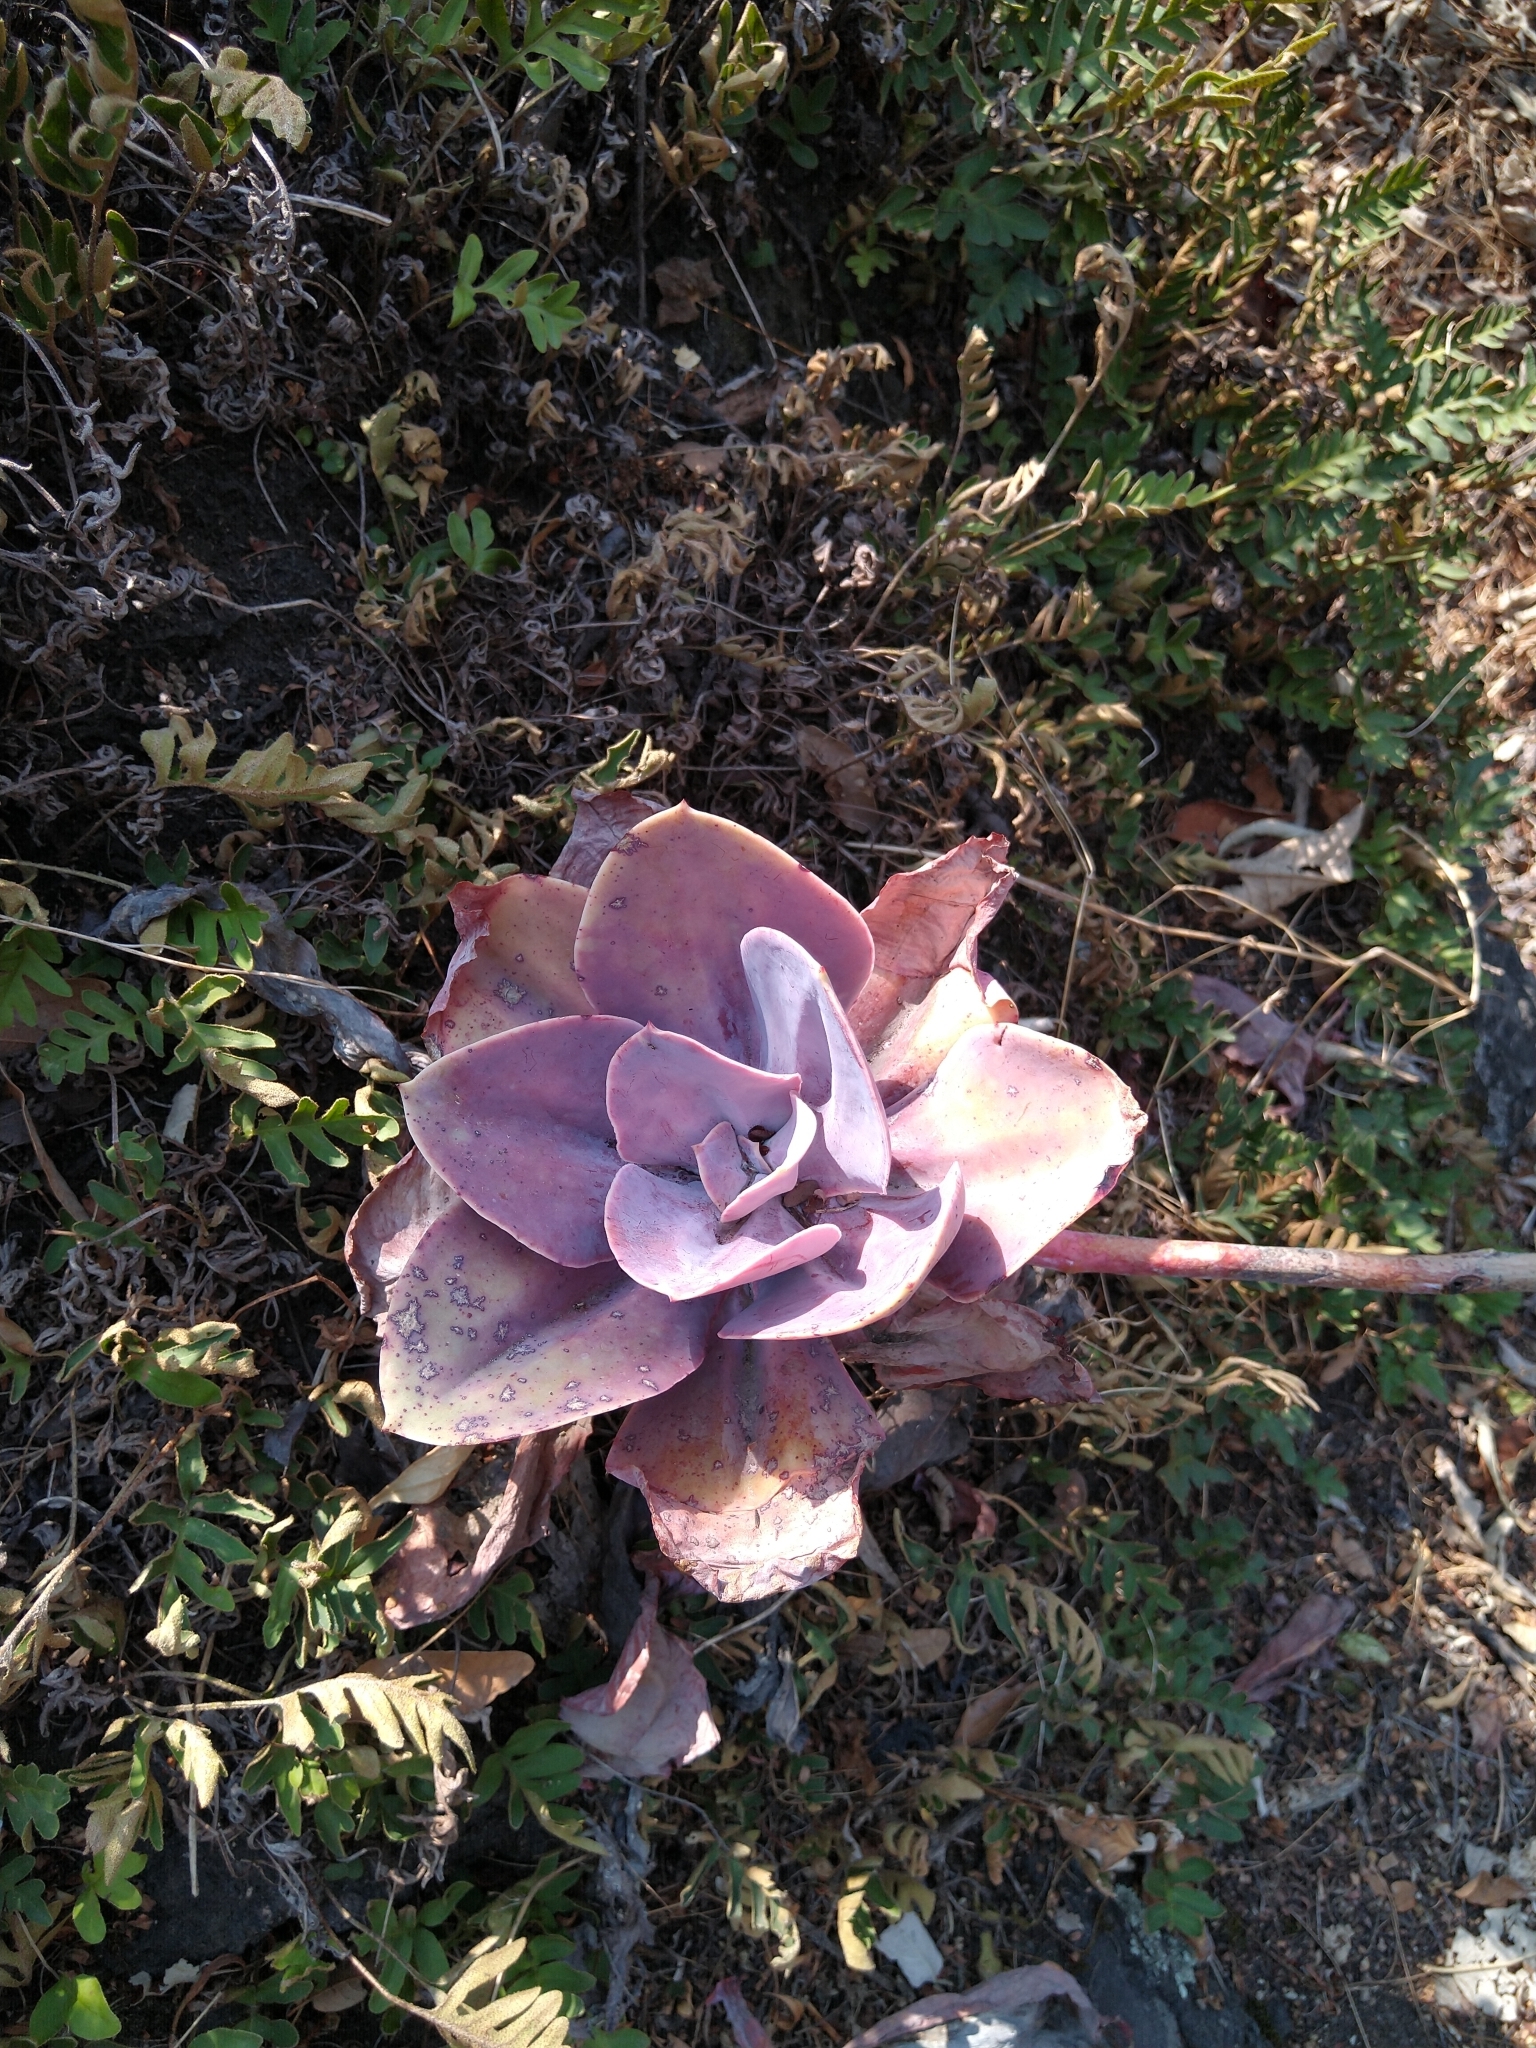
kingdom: Plantae
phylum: Tracheophyta
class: Magnoliopsida
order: Saxifragales
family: Crassulaceae
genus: Echeveria
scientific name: Echeveria gibbiflora
